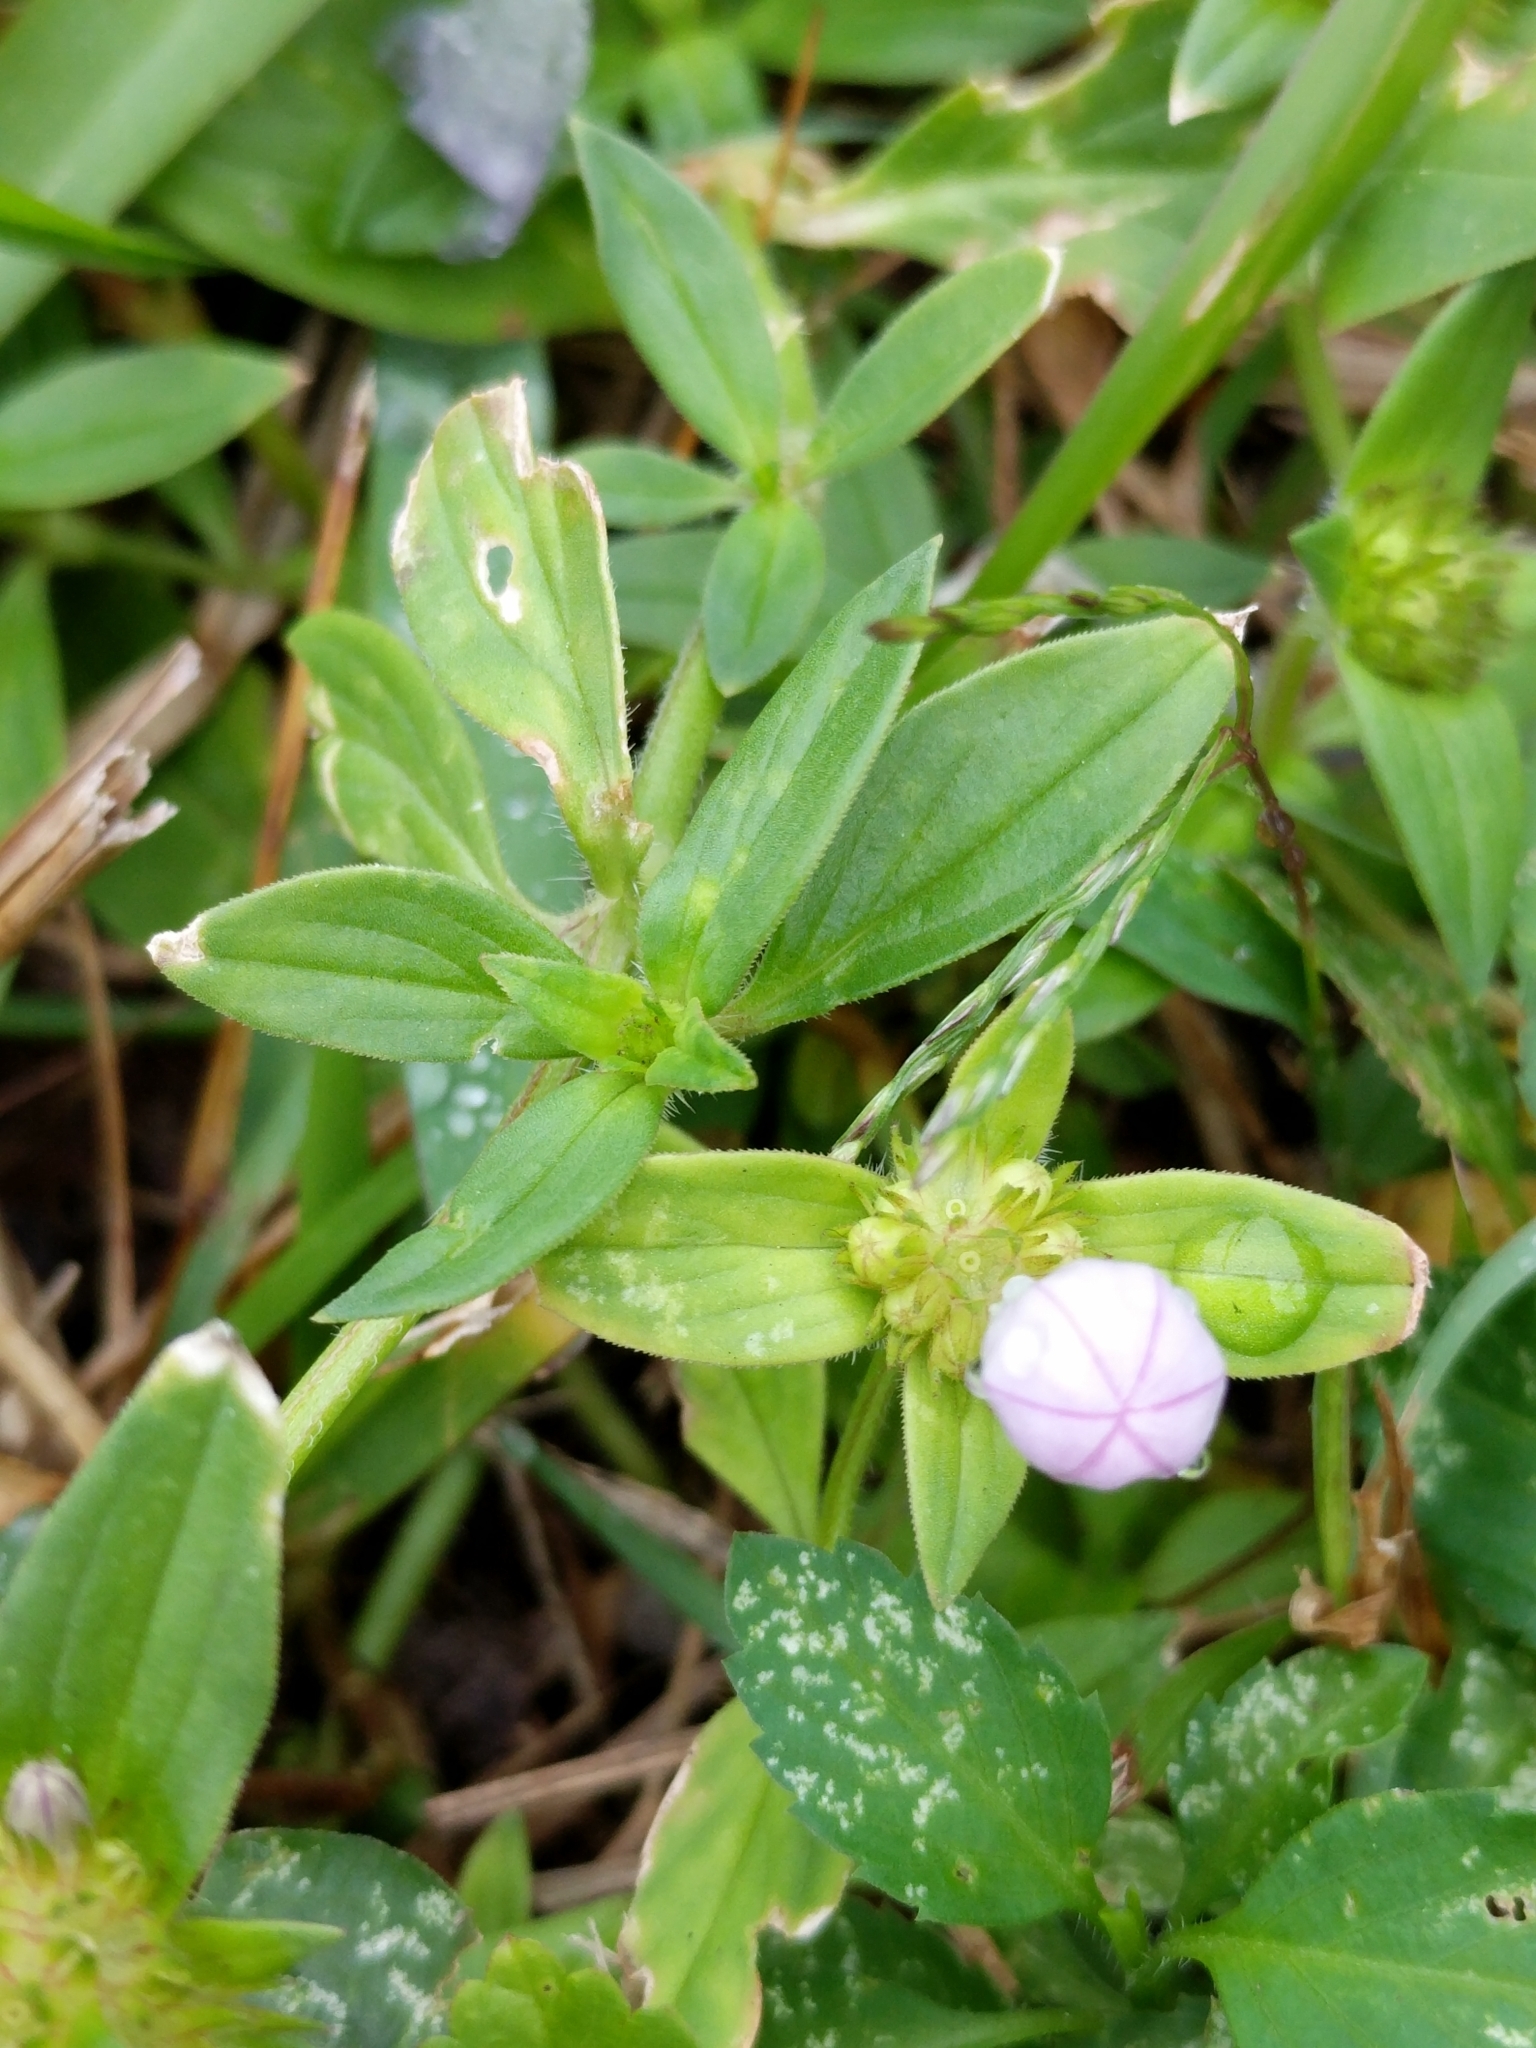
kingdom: Plantae
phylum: Tracheophyta
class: Magnoliopsida
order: Gentianales
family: Rubiaceae
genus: Richardia
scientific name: Richardia grandiflora
